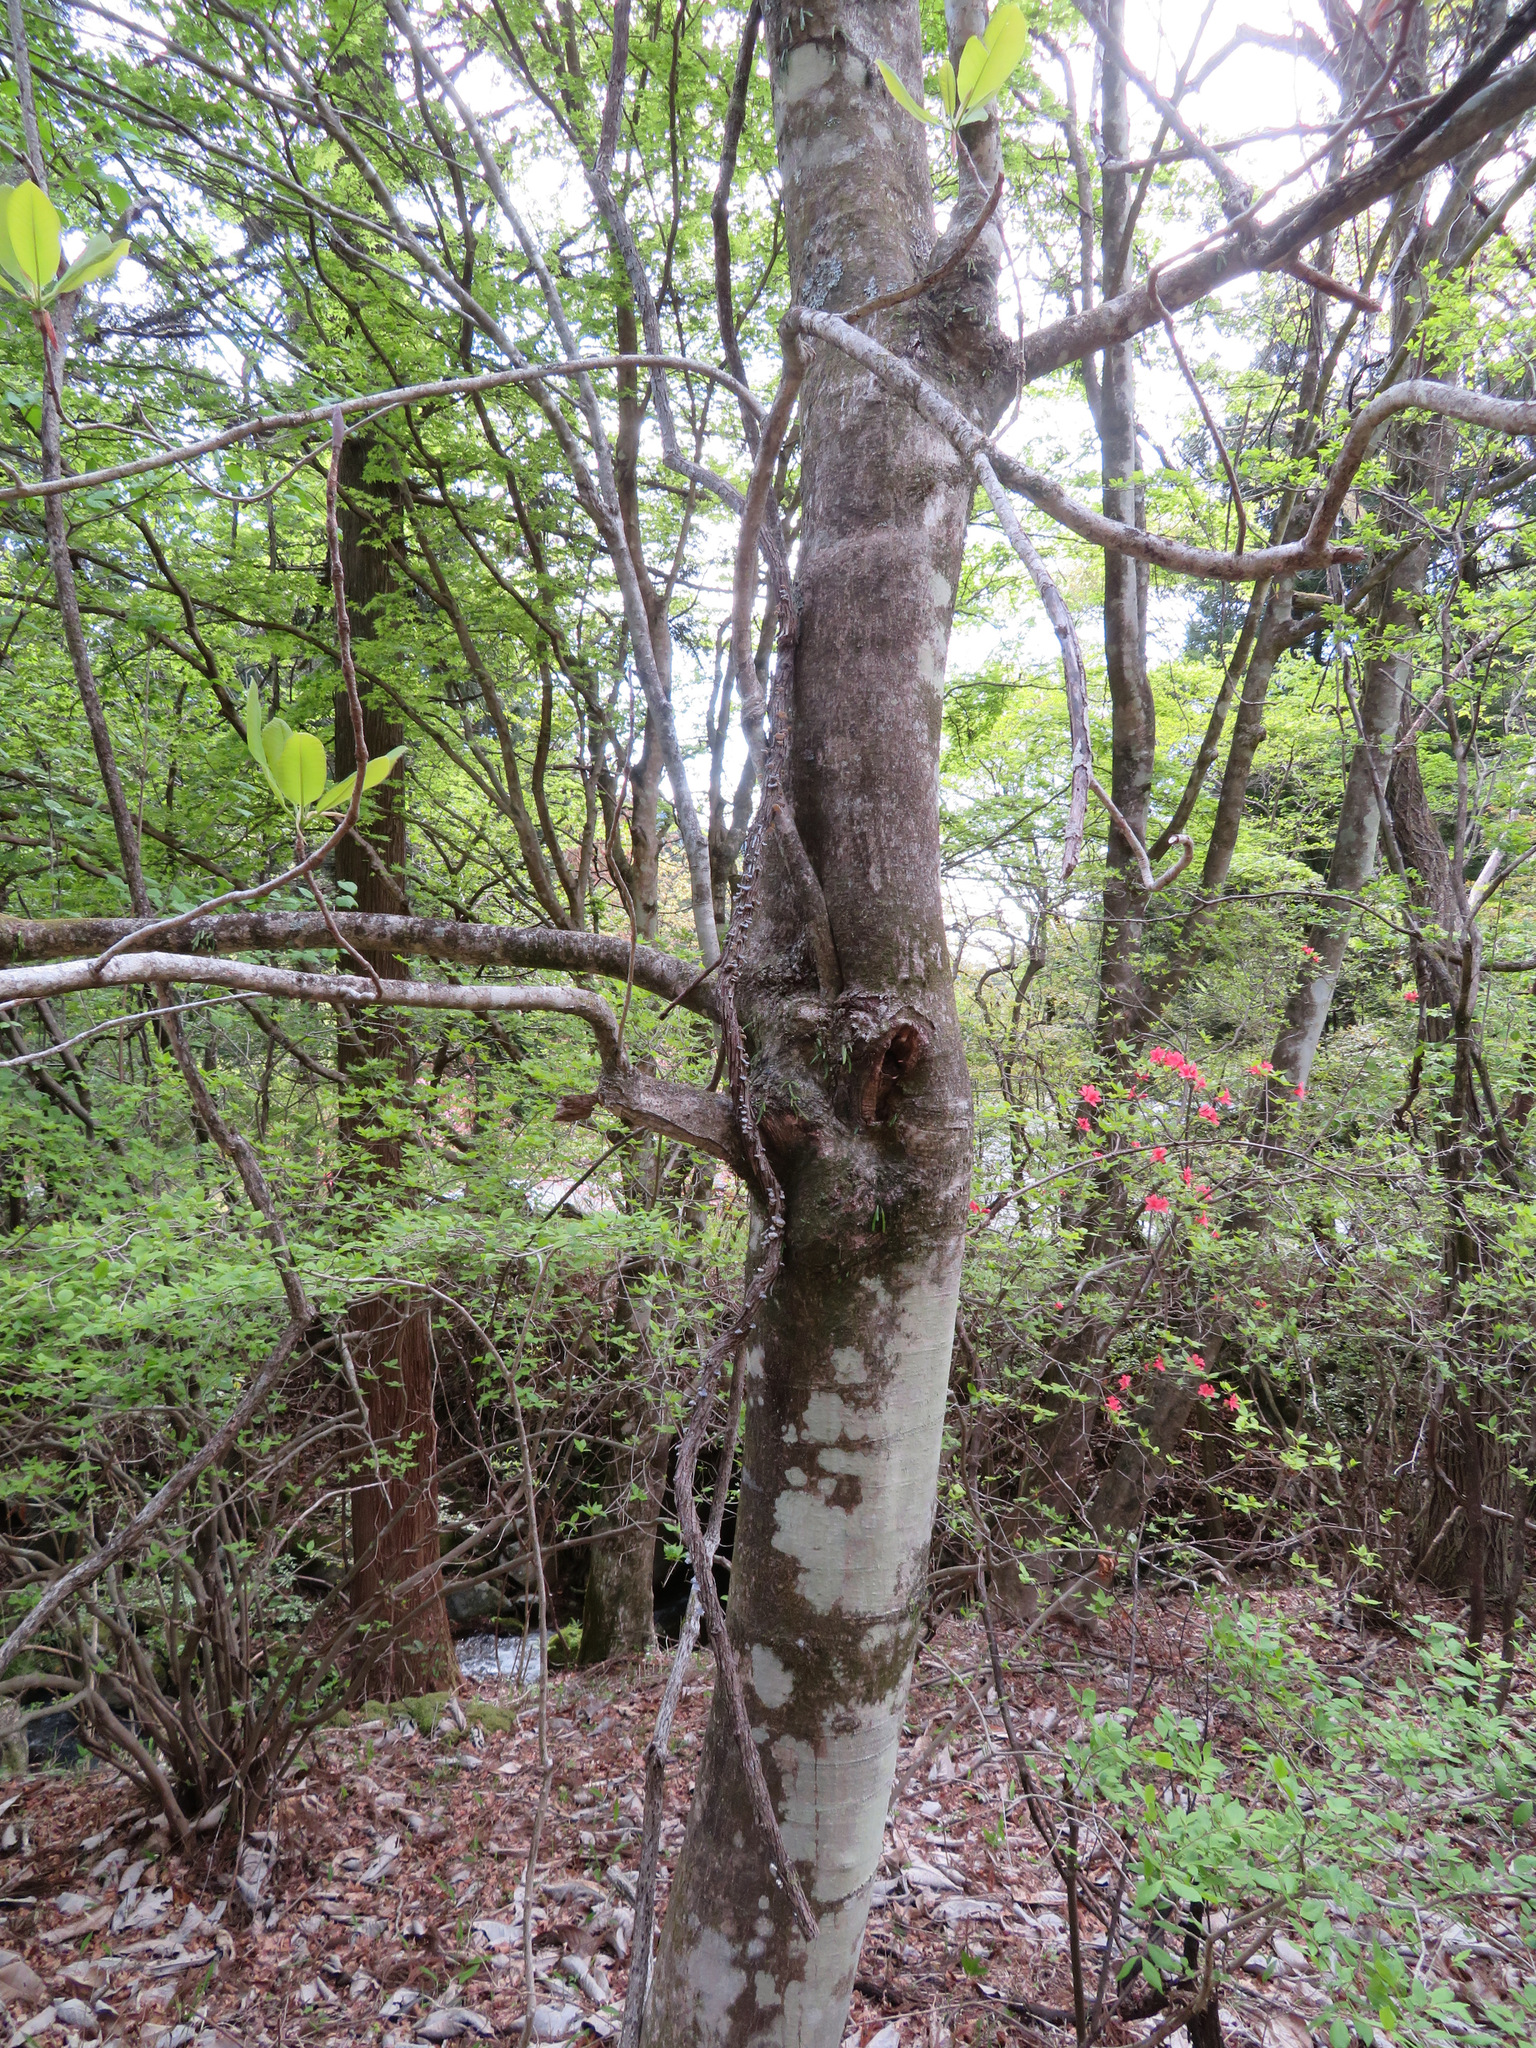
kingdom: Plantae
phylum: Tracheophyta
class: Magnoliopsida
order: Magnoliales
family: Magnoliaceae
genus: Magnolia
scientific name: Magnolia obovata
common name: Japanese whitebark magnolia
